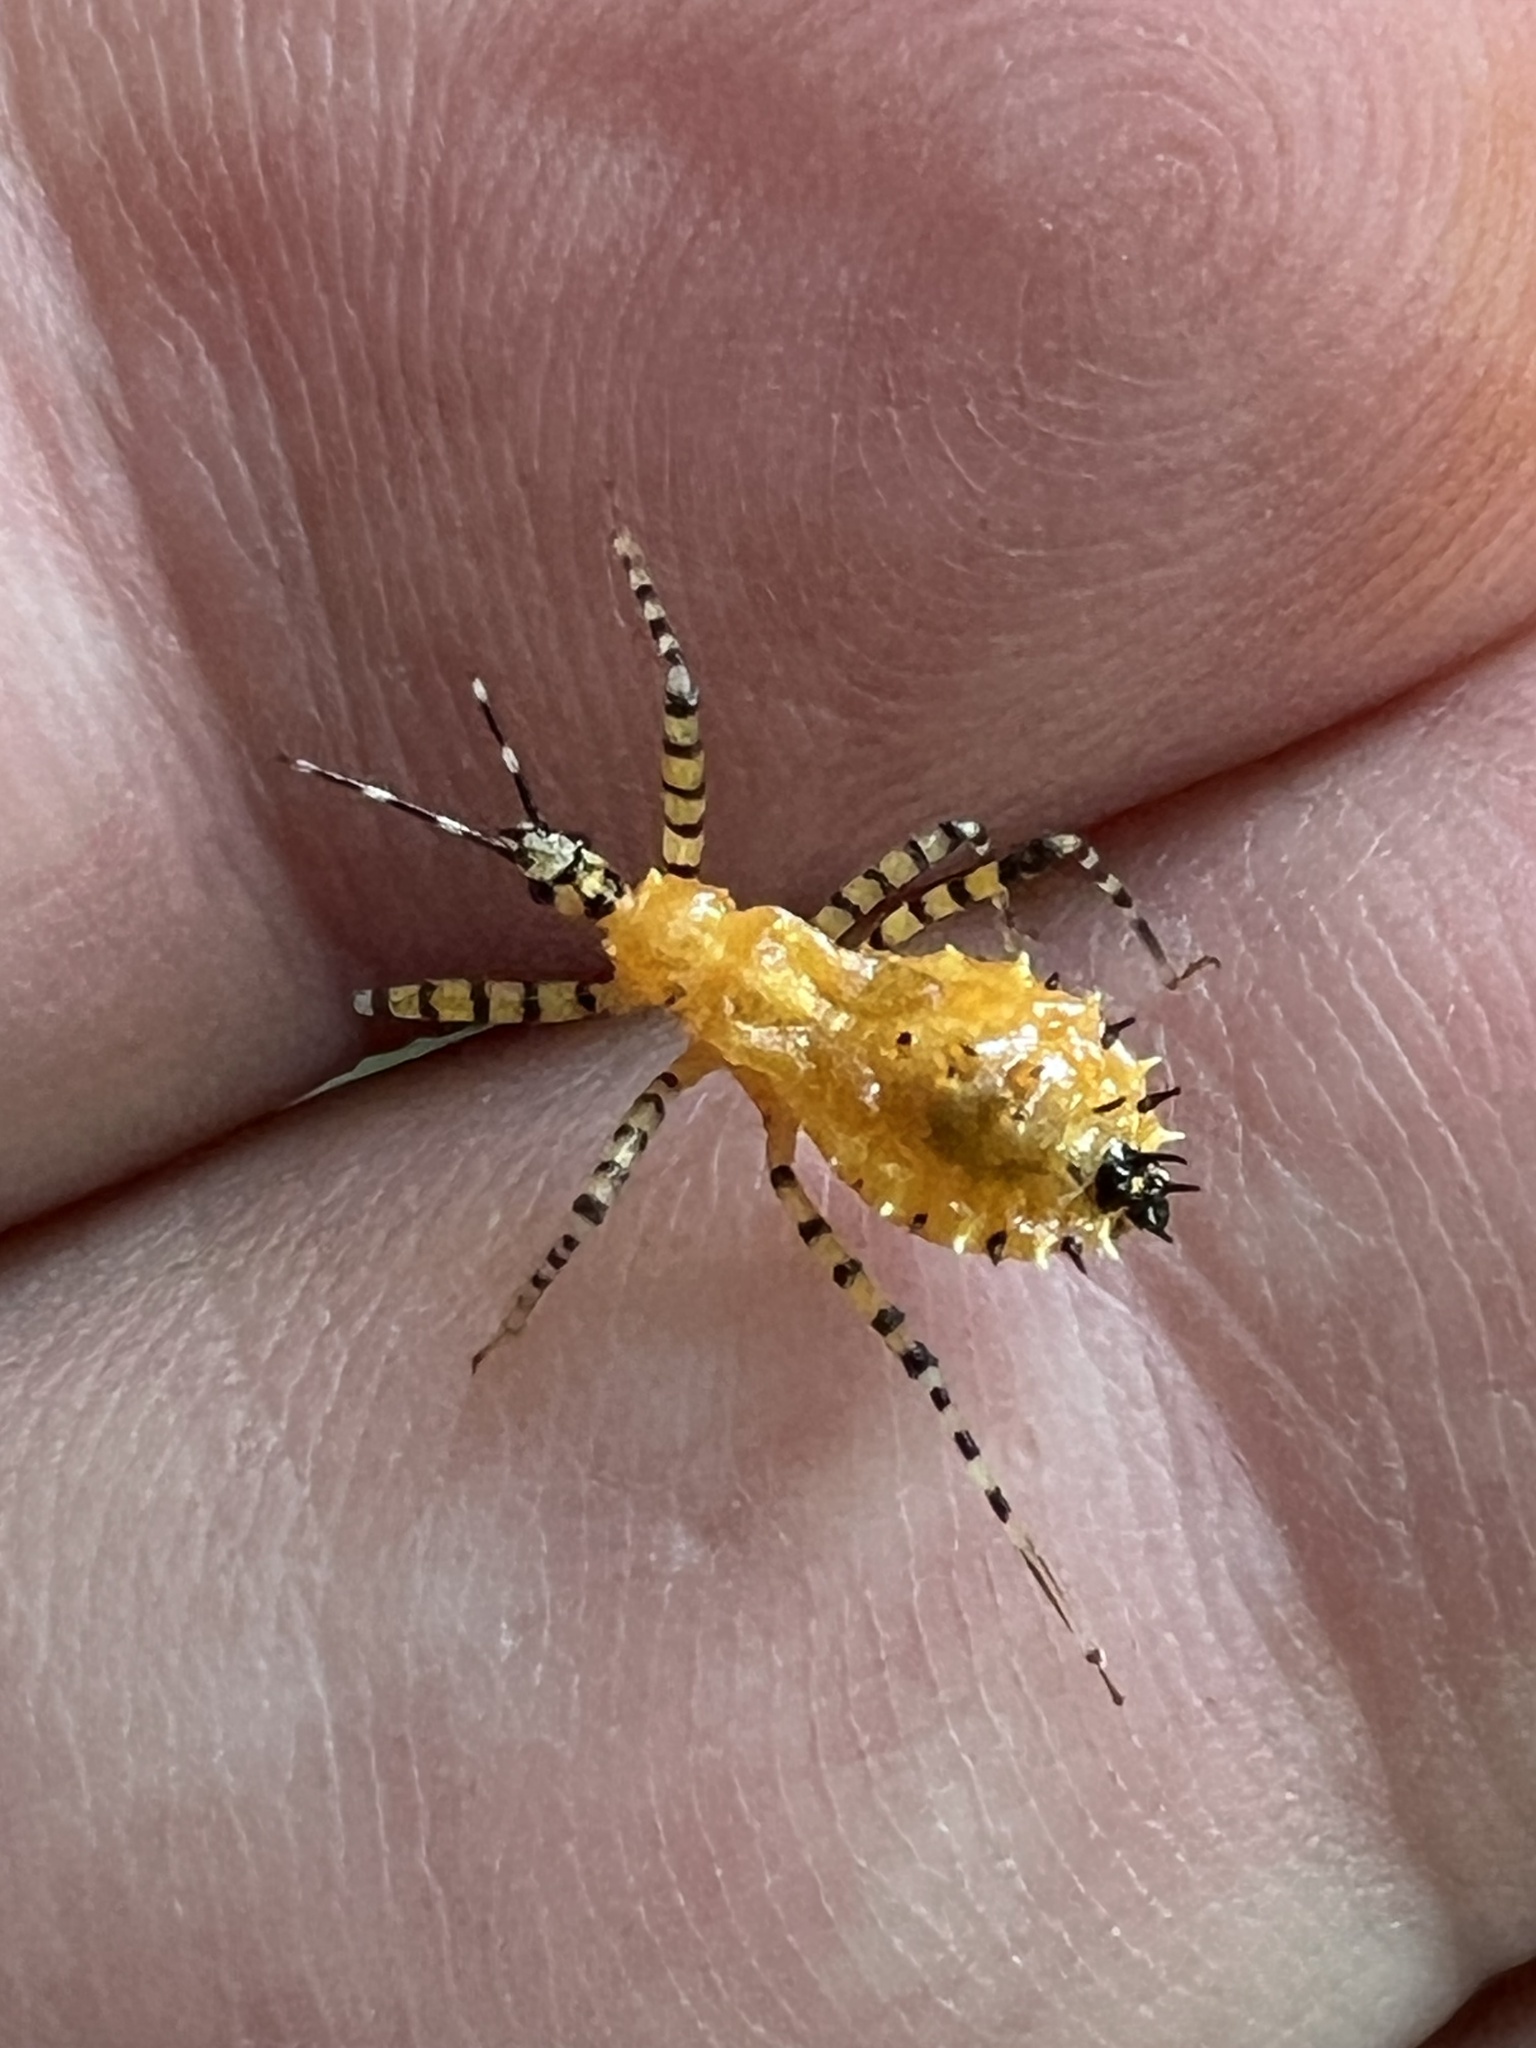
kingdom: Animalia
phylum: Arthropoda
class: Insecta
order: Hemiptera
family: Reduviidae
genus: Pselliopus
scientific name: Pselliopus barberi
